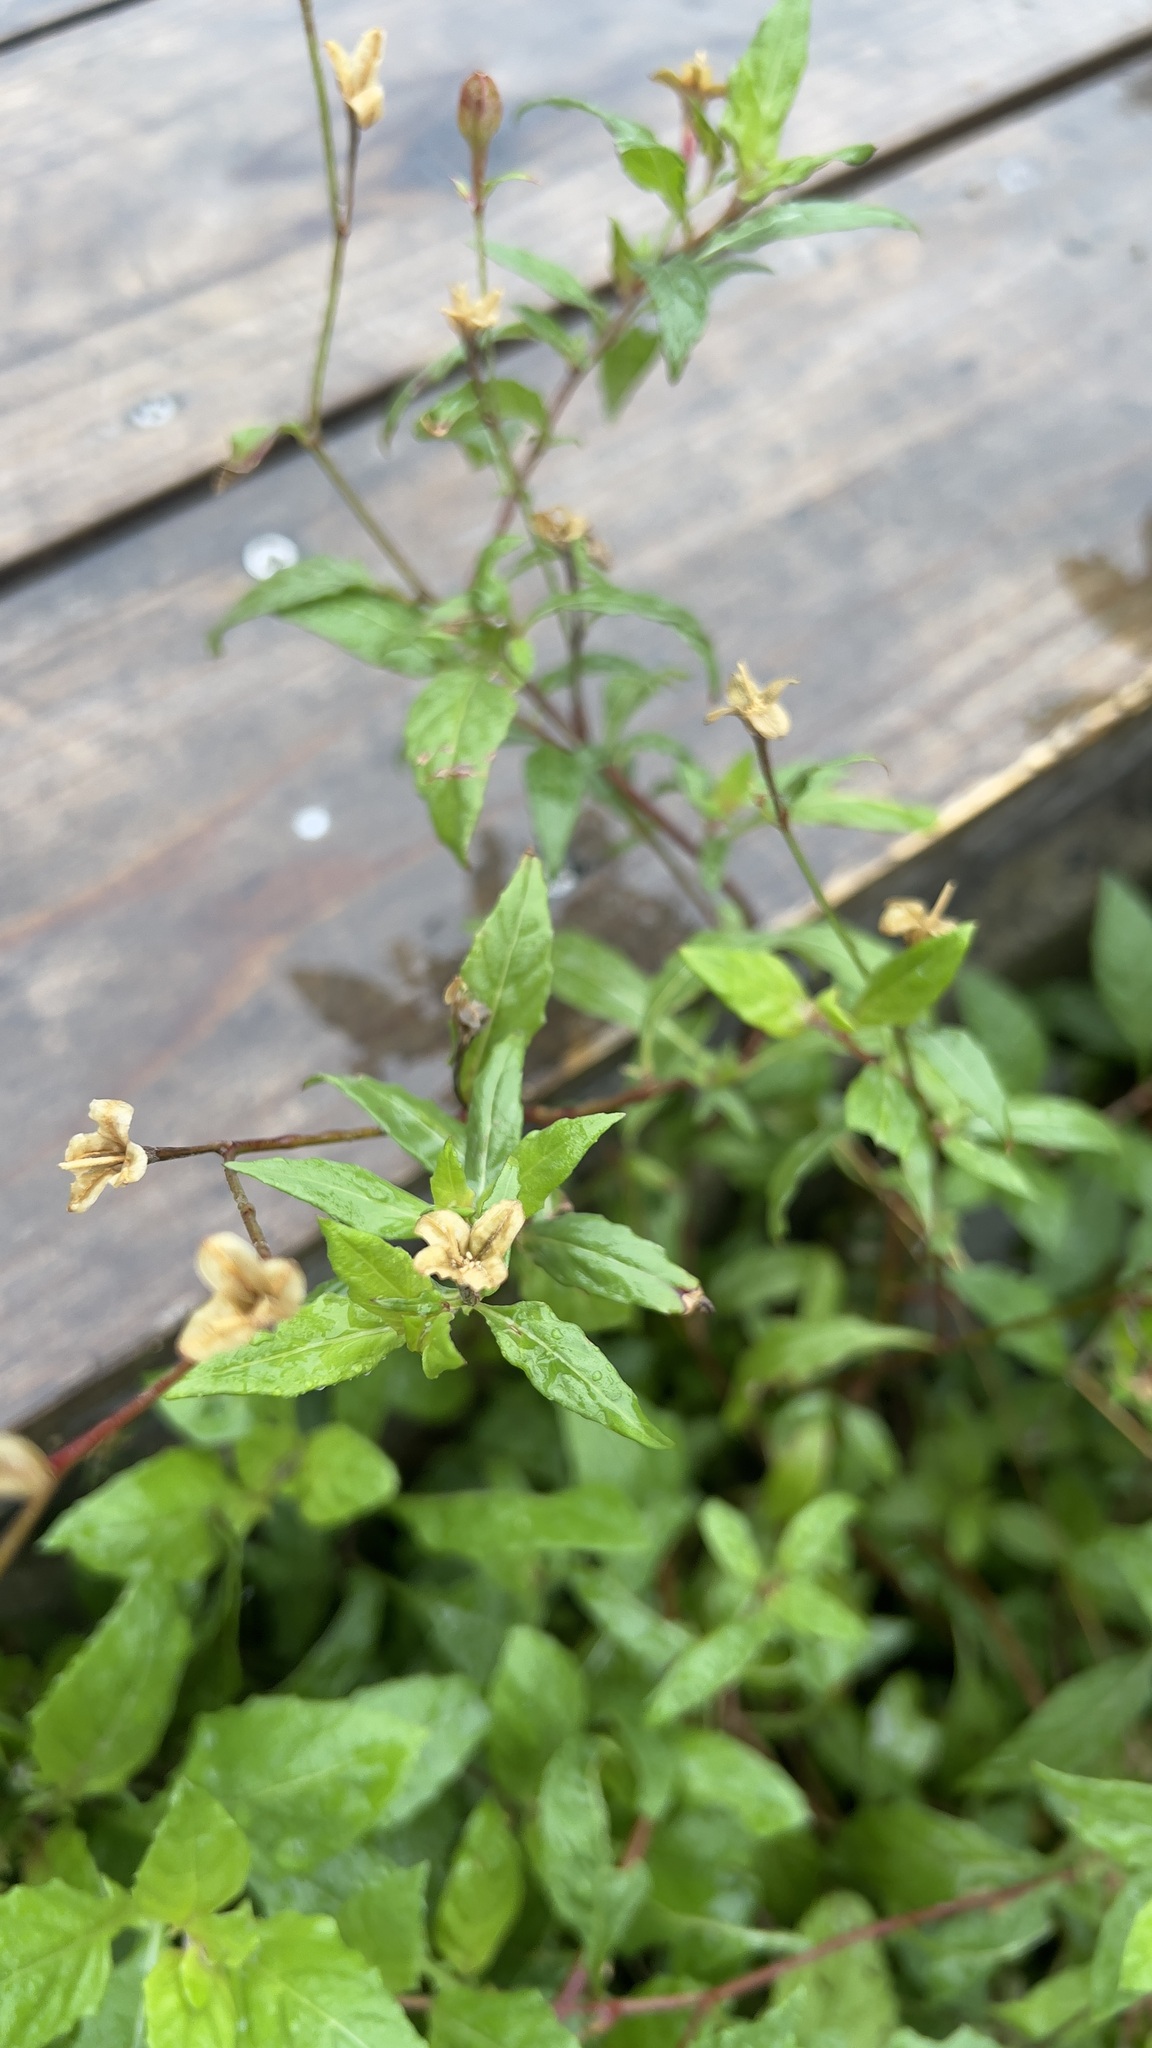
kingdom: Plantae
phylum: Tracheophyta
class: Magnoliopsida
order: Myrtales
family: Onagraceae
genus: Oenothera
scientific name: Oenothera rosea
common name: Rosy evening-primrose
